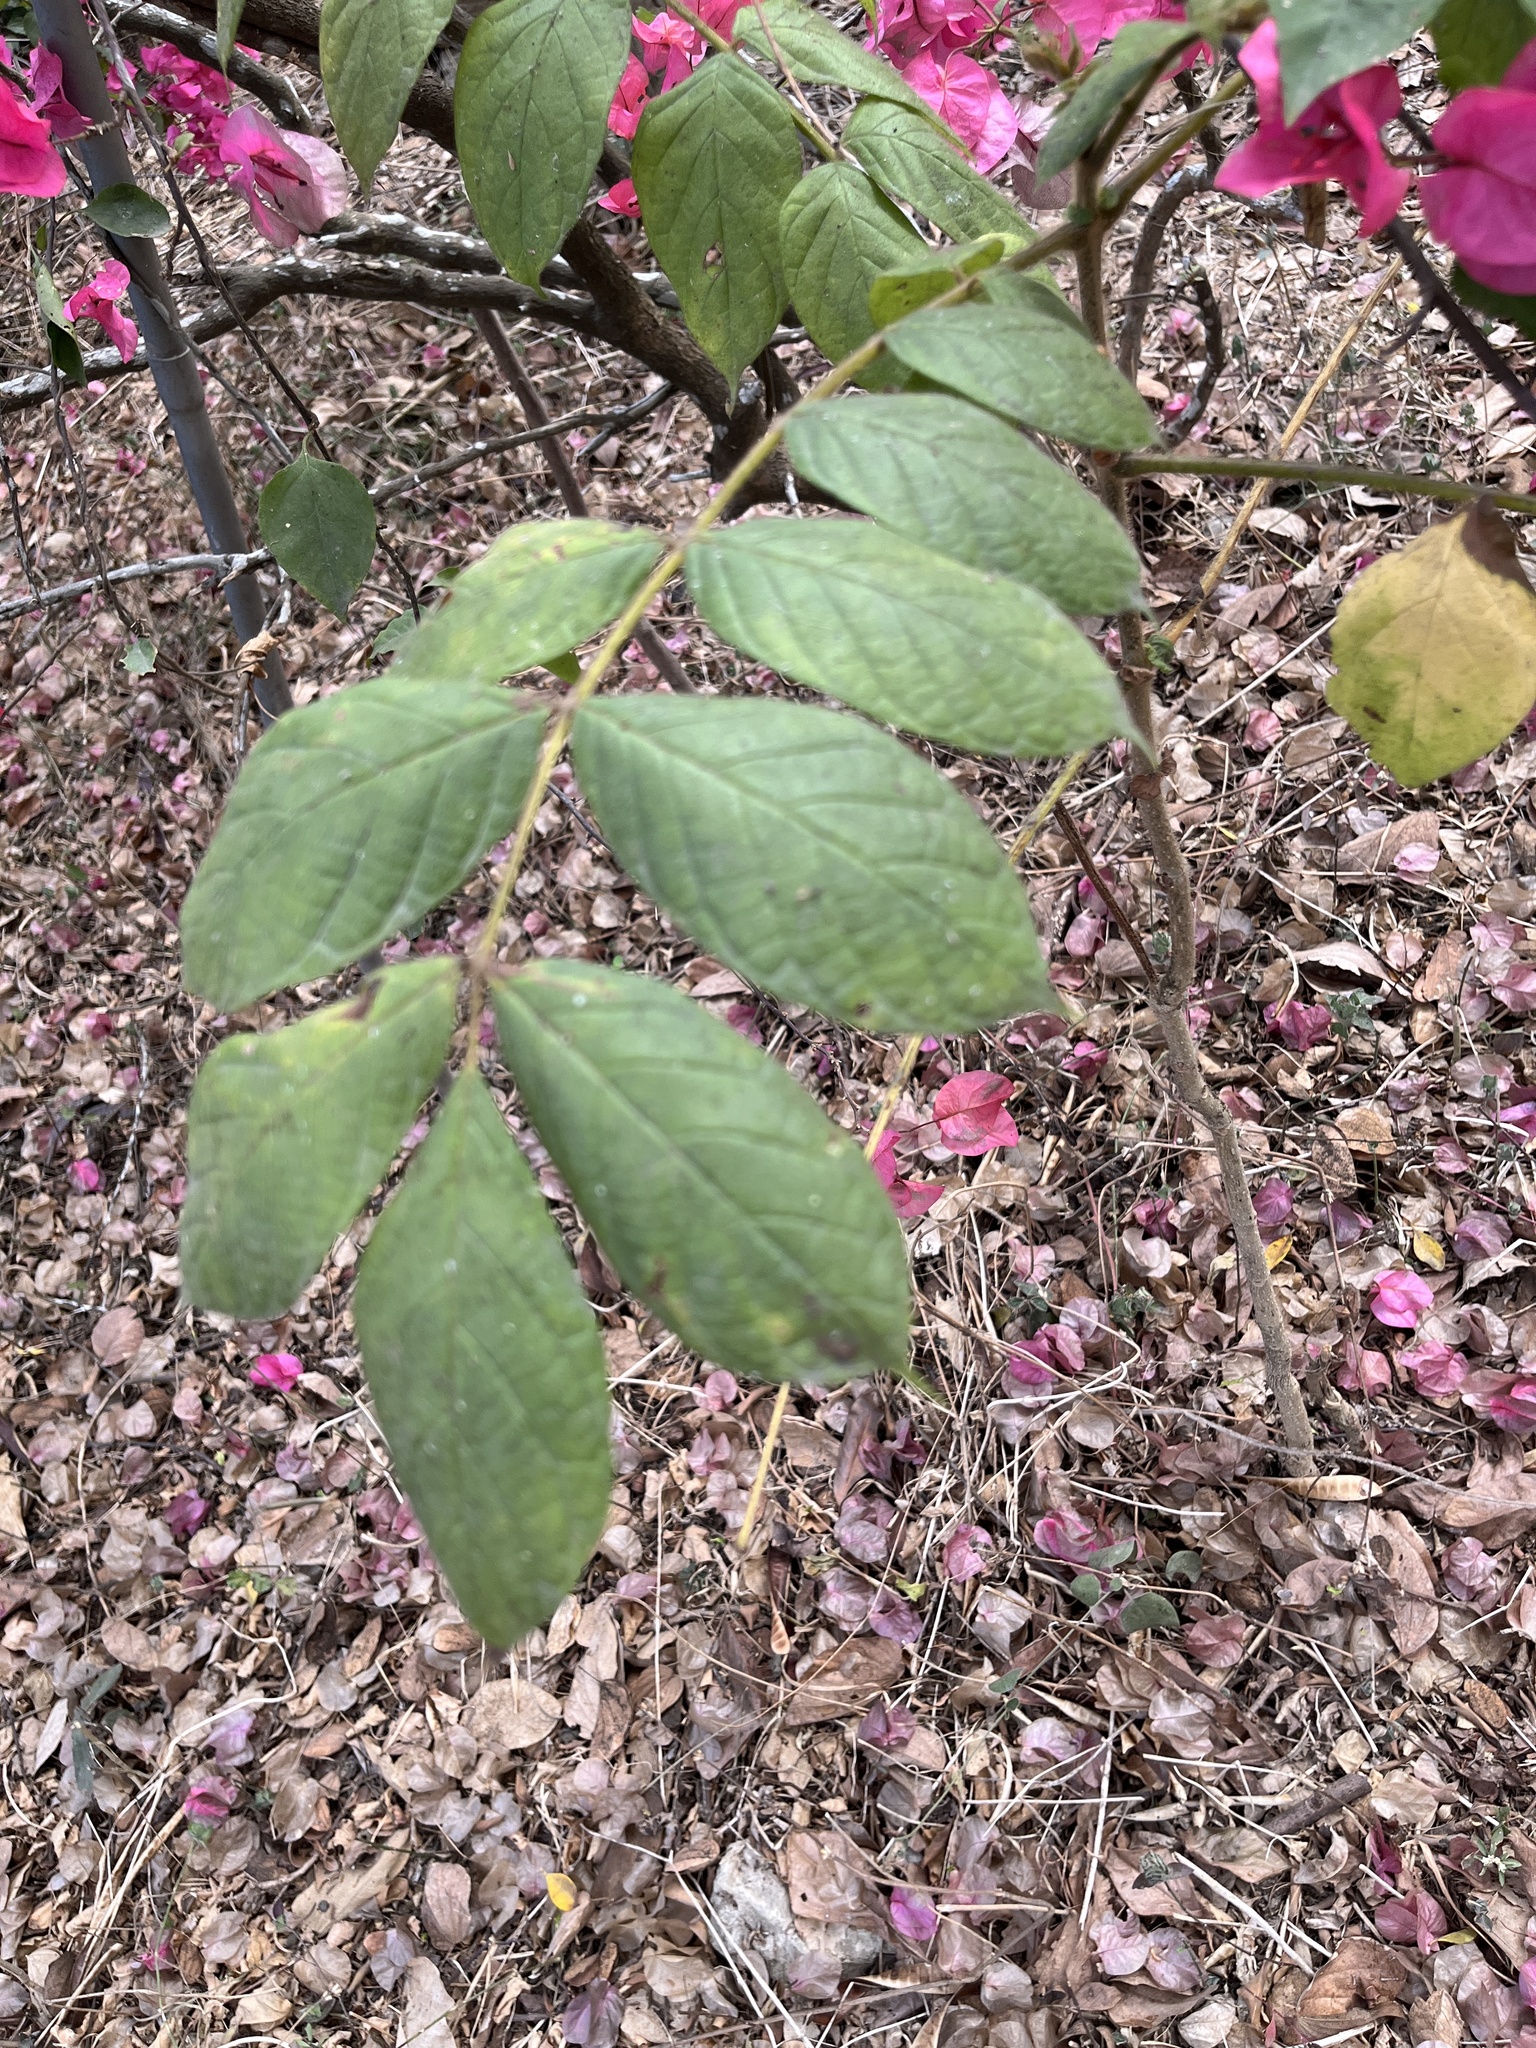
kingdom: Plantae
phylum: Tracheophyta
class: Magnoliopsida
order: Lamiales
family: Bignoniaceae
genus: Spathodea
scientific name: Spathodea campanulata
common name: African tuliptree
